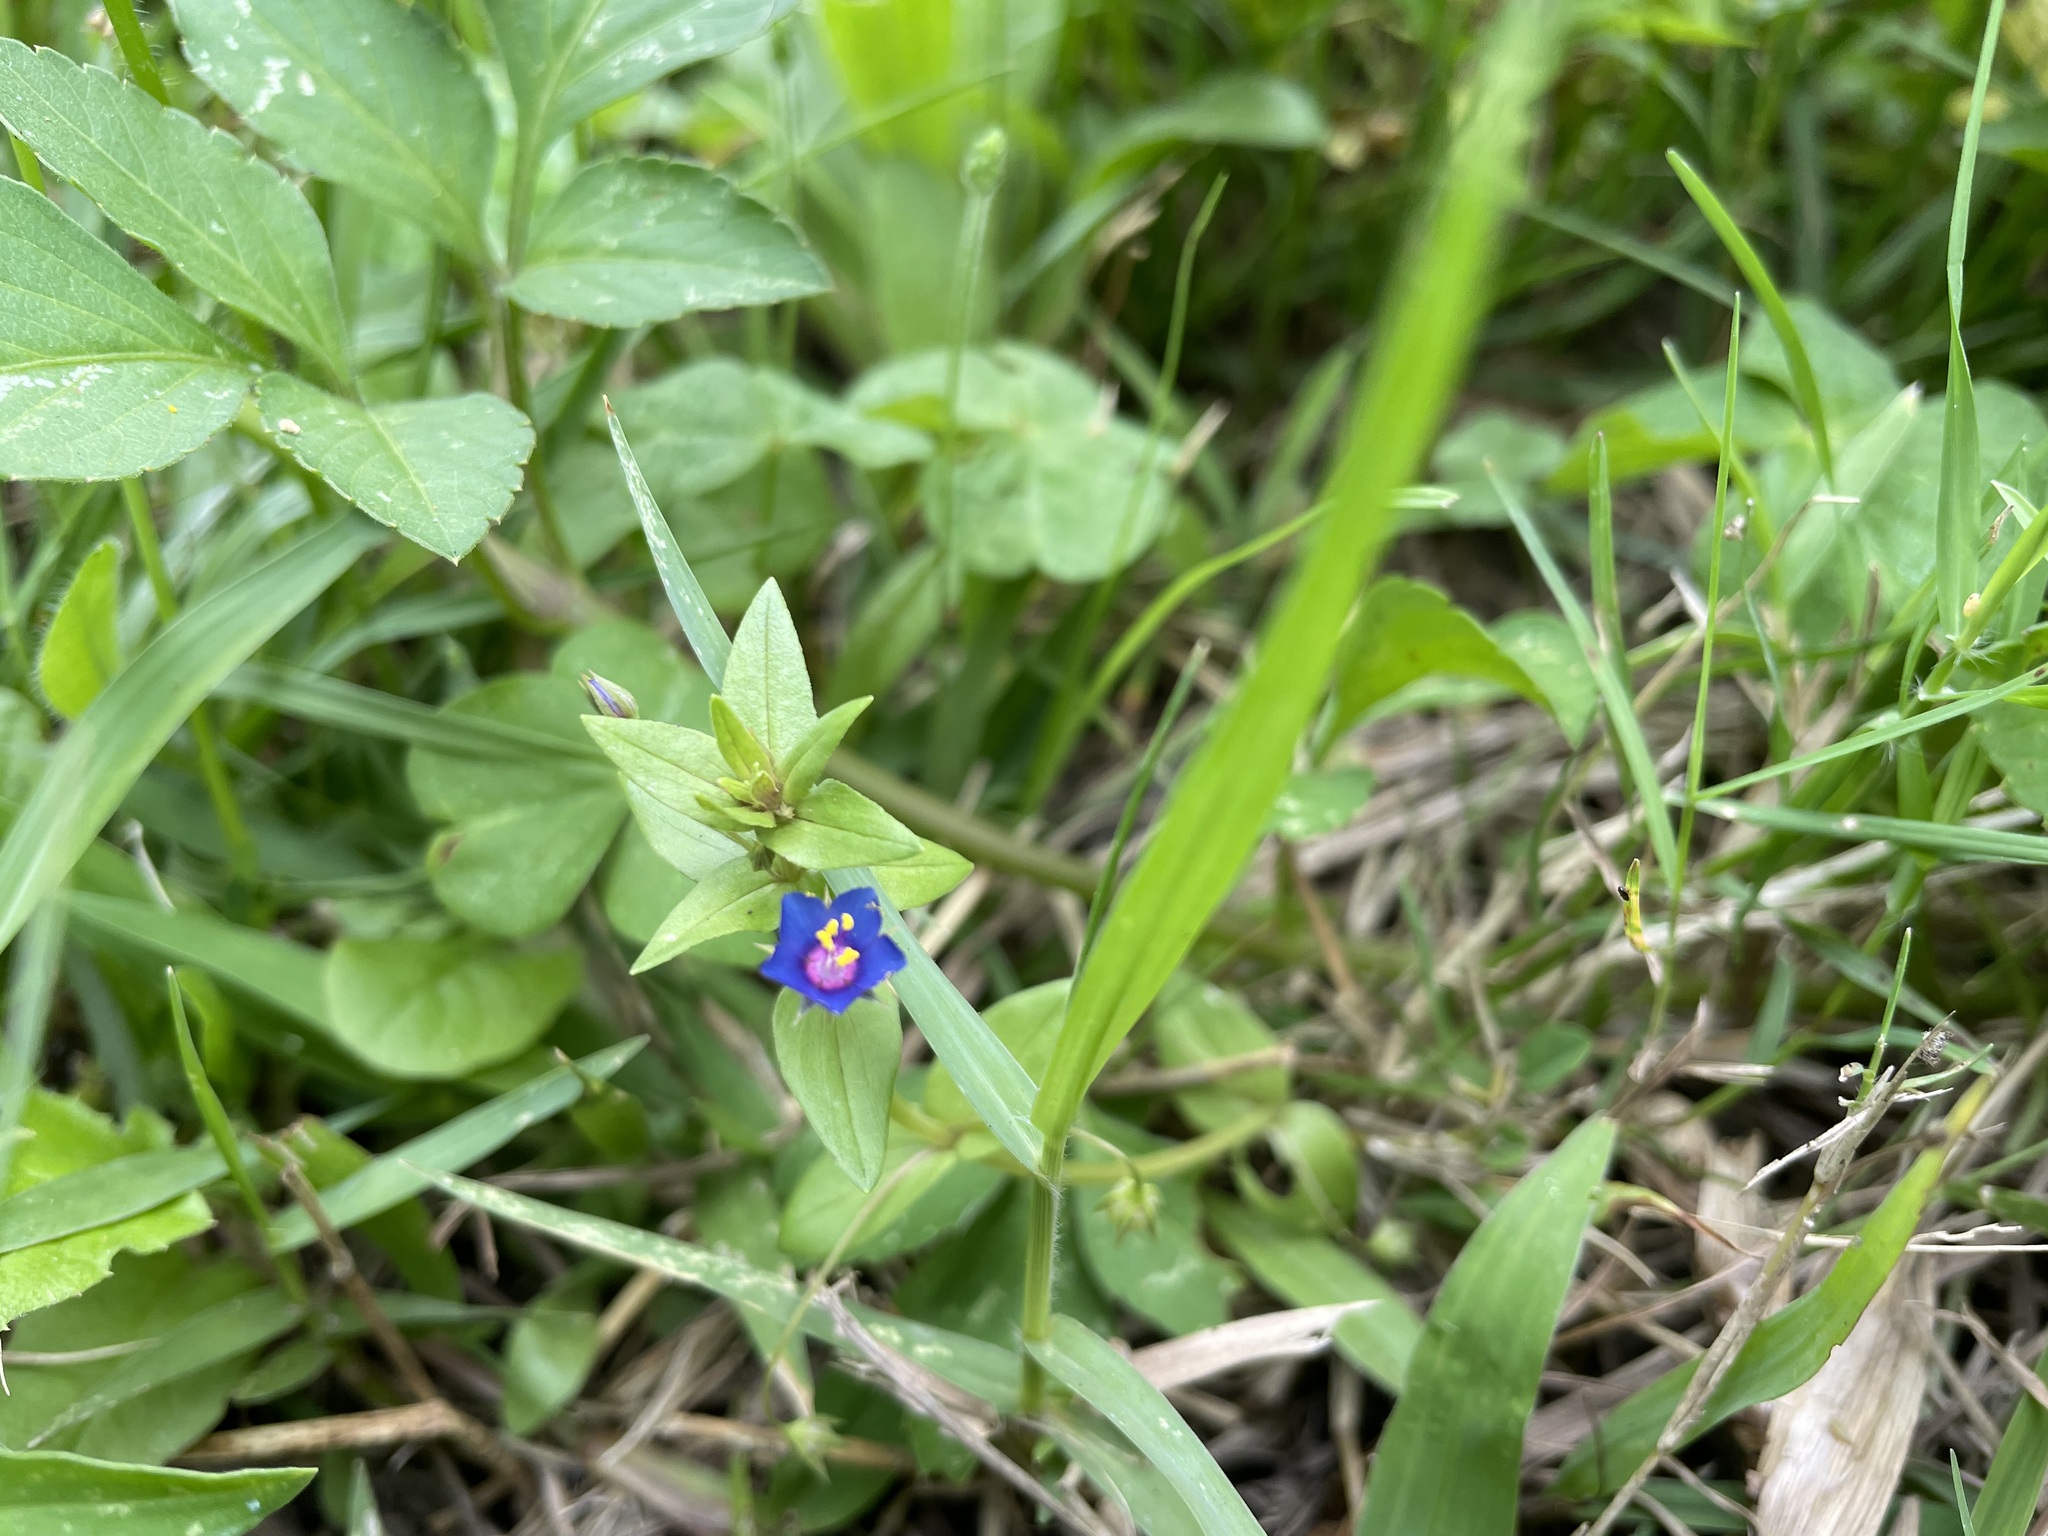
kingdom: Plantae
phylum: Tracheophyta
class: Magnoliopsida
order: Ericales
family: Primulaceae
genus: Lysimachia
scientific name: Lysimachia loeflingii
